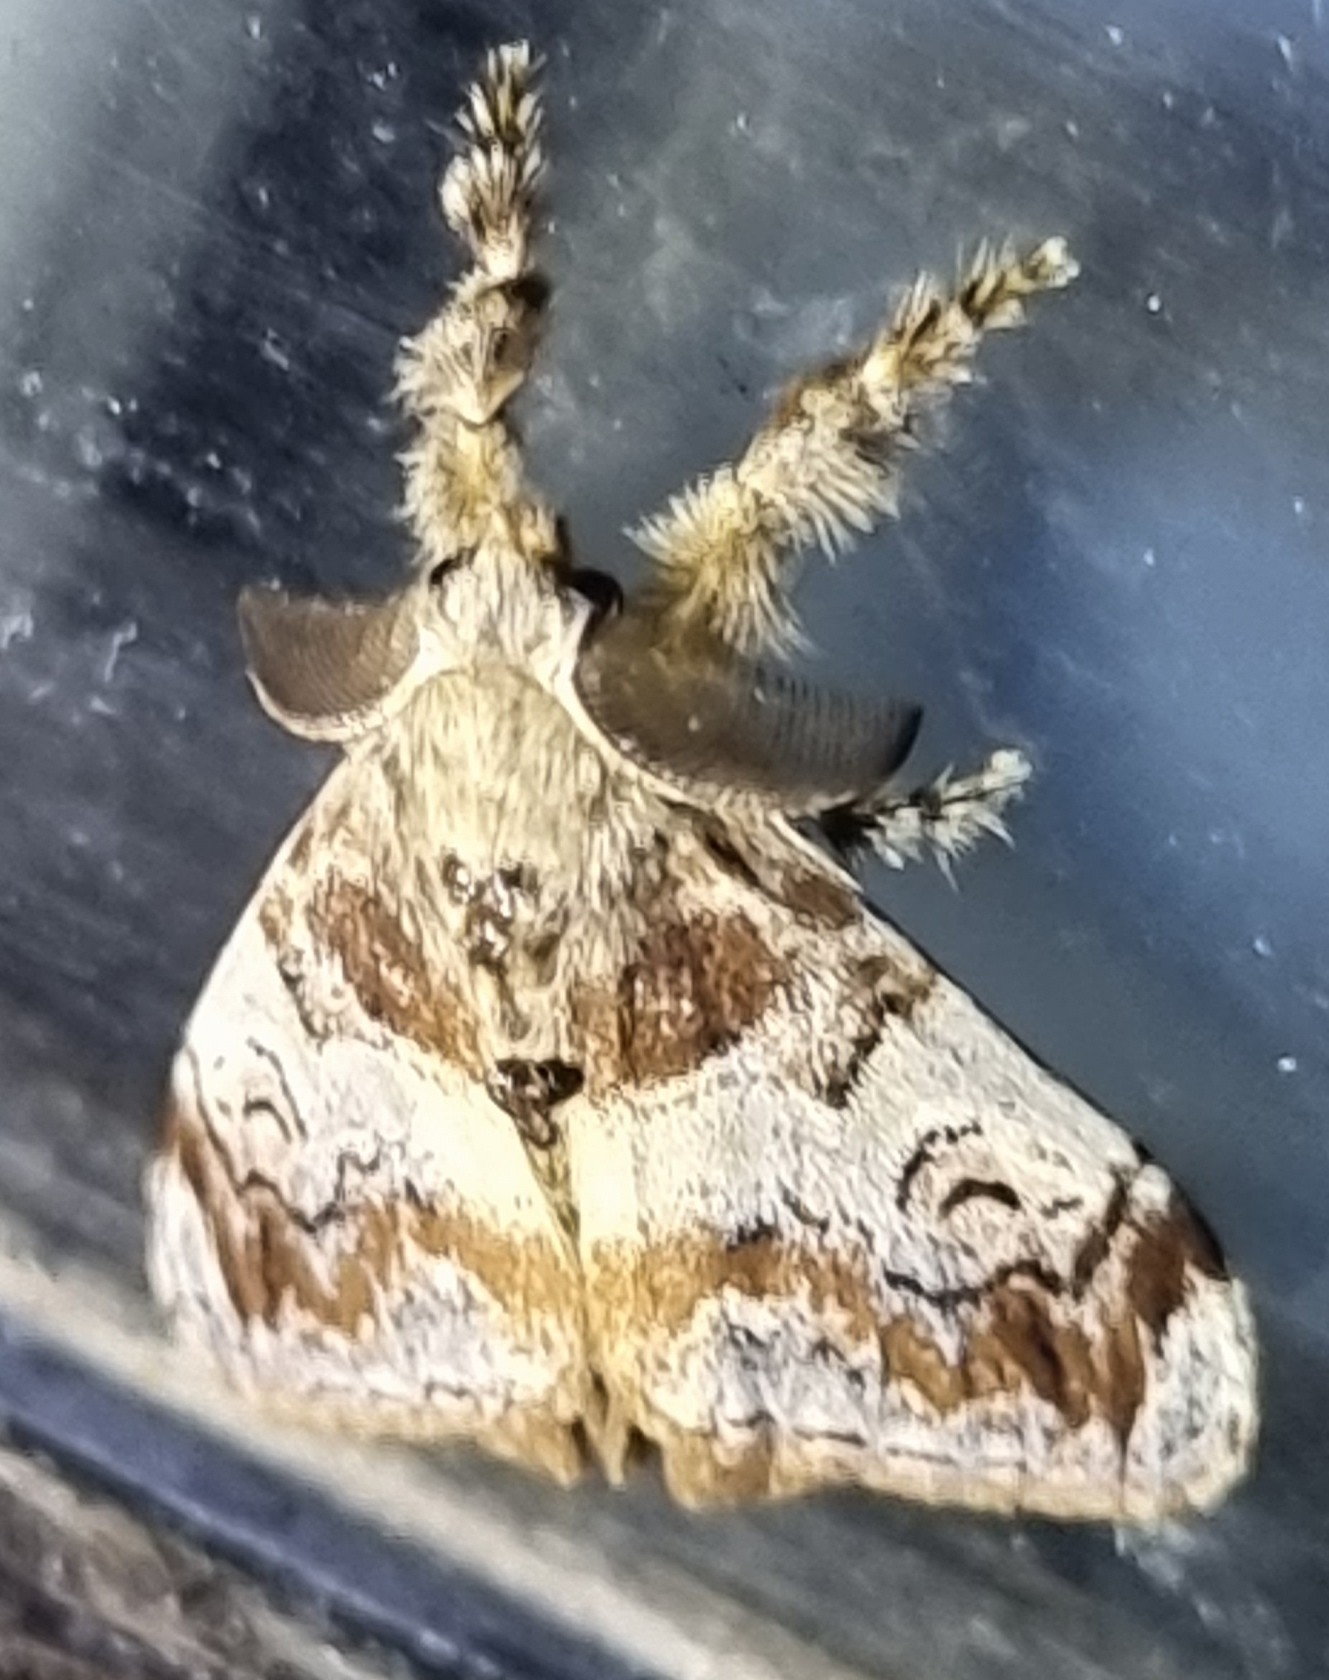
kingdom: Animalia
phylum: Arthropoda
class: Insecta
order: Lepidoptera
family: Erebidae
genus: Orgyia
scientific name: Orgyia australis
